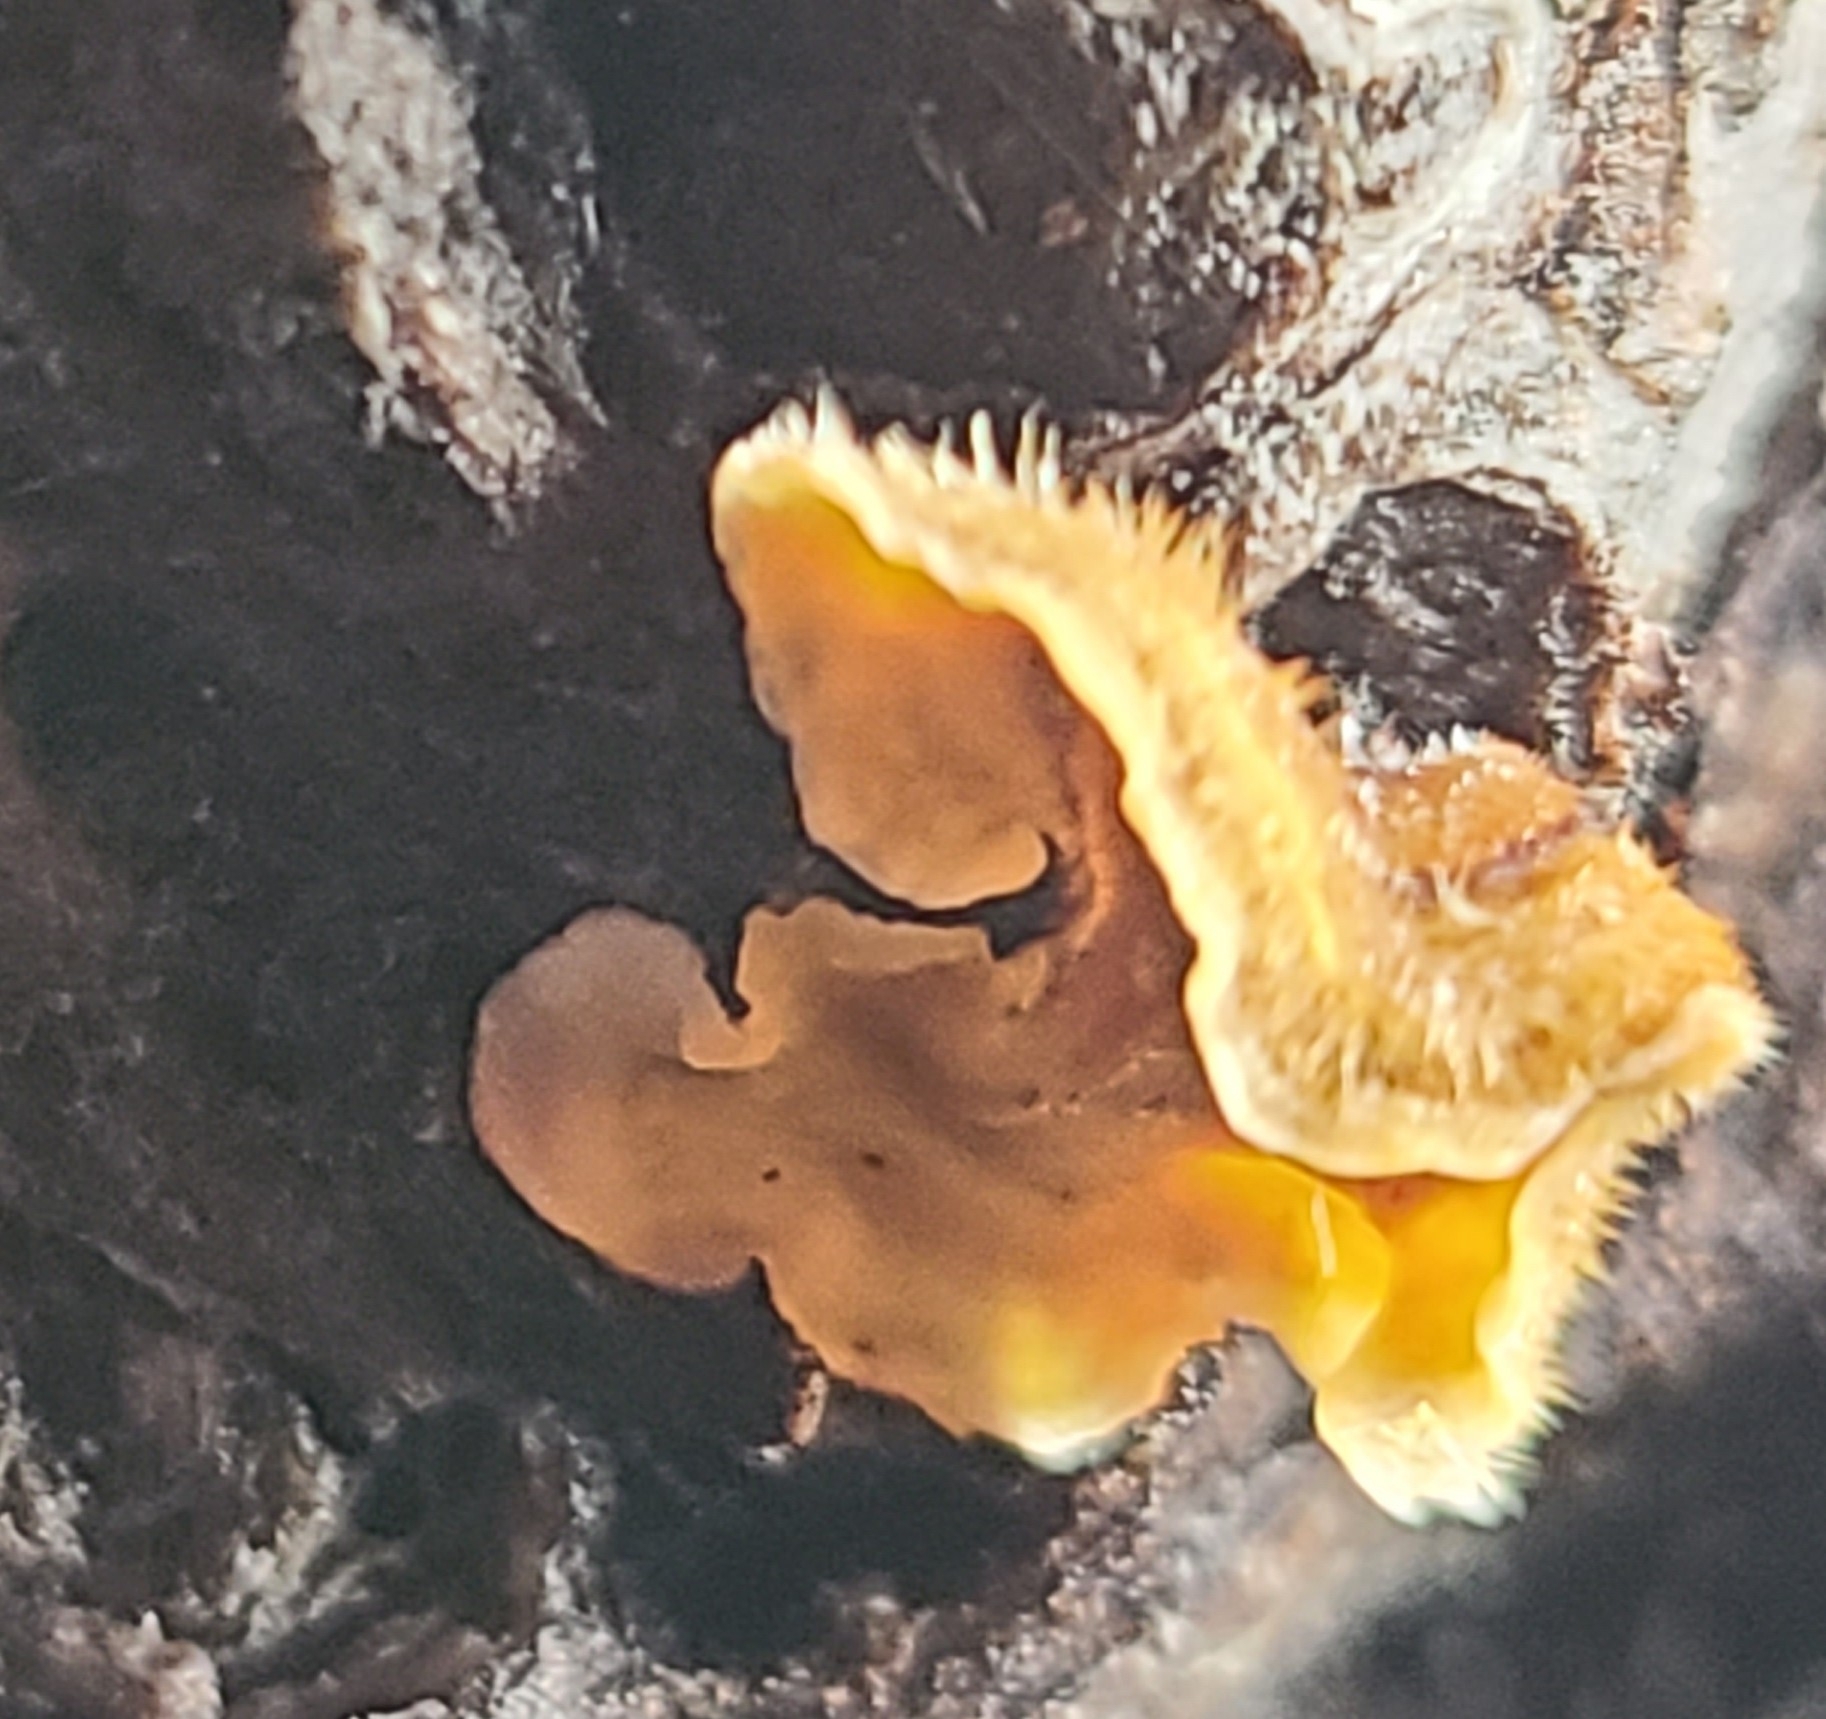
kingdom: Fungi
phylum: Basidiomycota
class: Agaricomycetes
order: Russulales
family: Stereaceae
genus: Stereum
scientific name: Stereum hirsutum
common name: Hairy curtain crust
